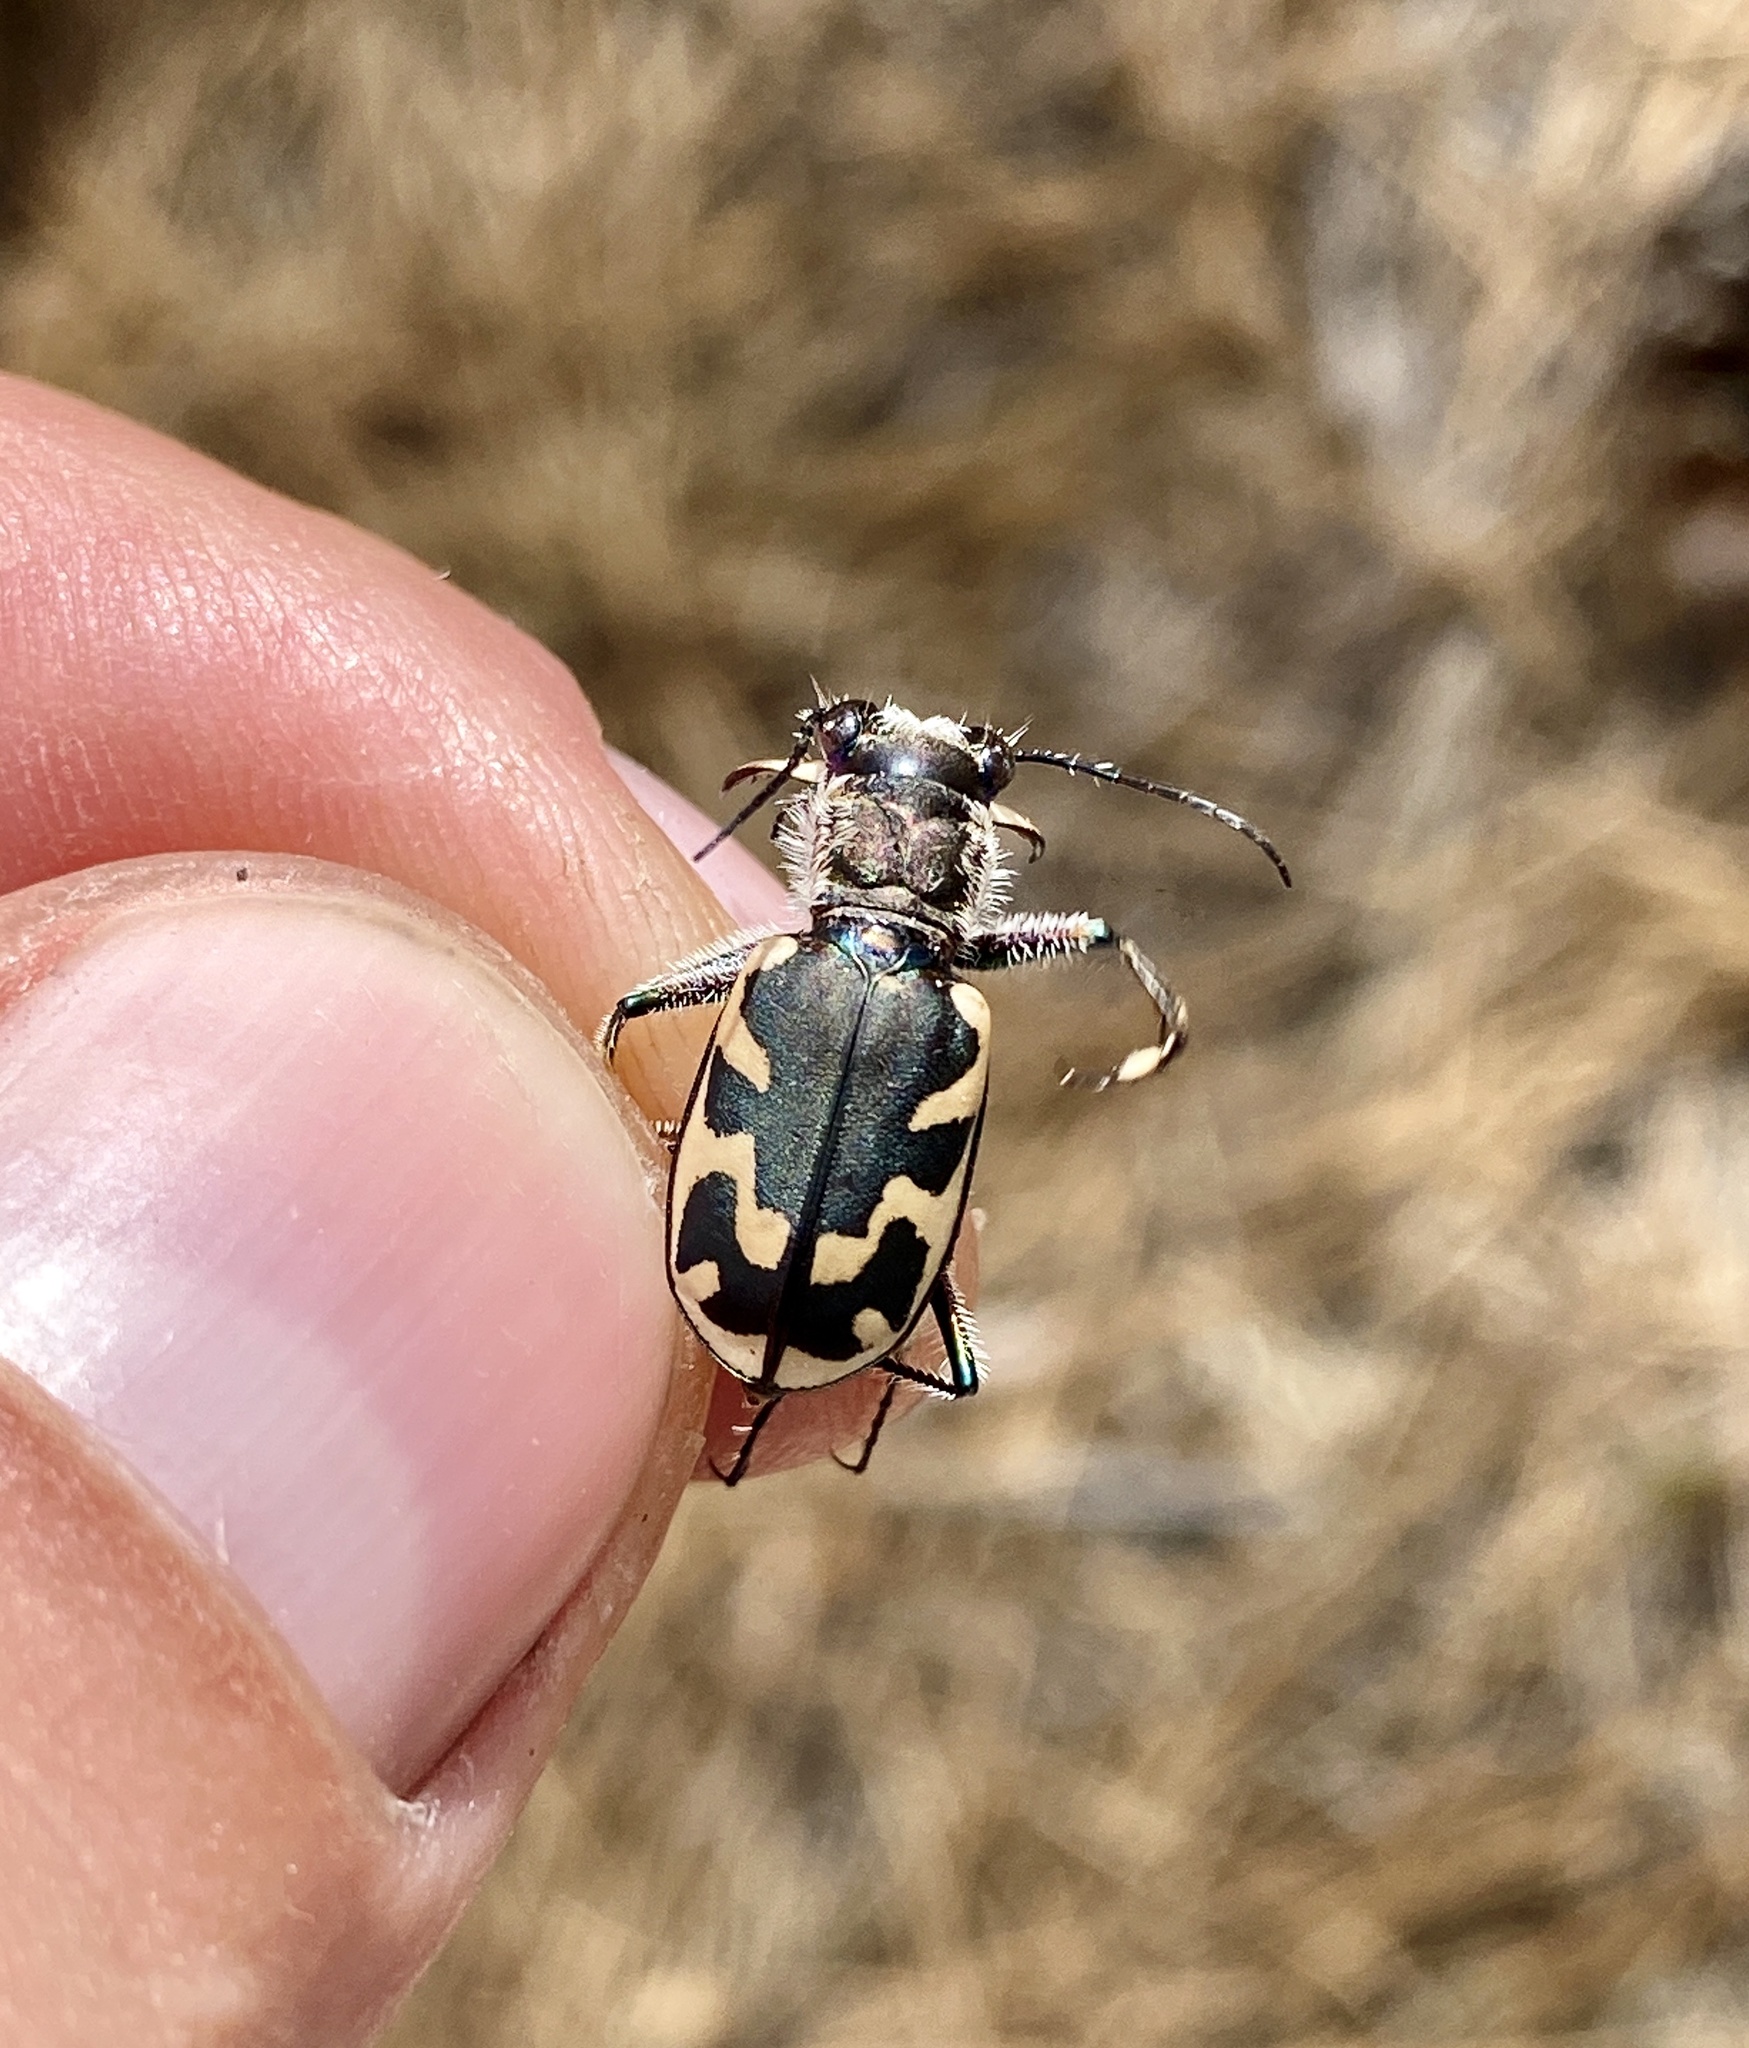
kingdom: Animalia
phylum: Arthropoda
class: Insecta
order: Coleoptera
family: Carabidae
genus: Cicindela
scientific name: Cicindela formosa
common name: Big sand tiger beetle
